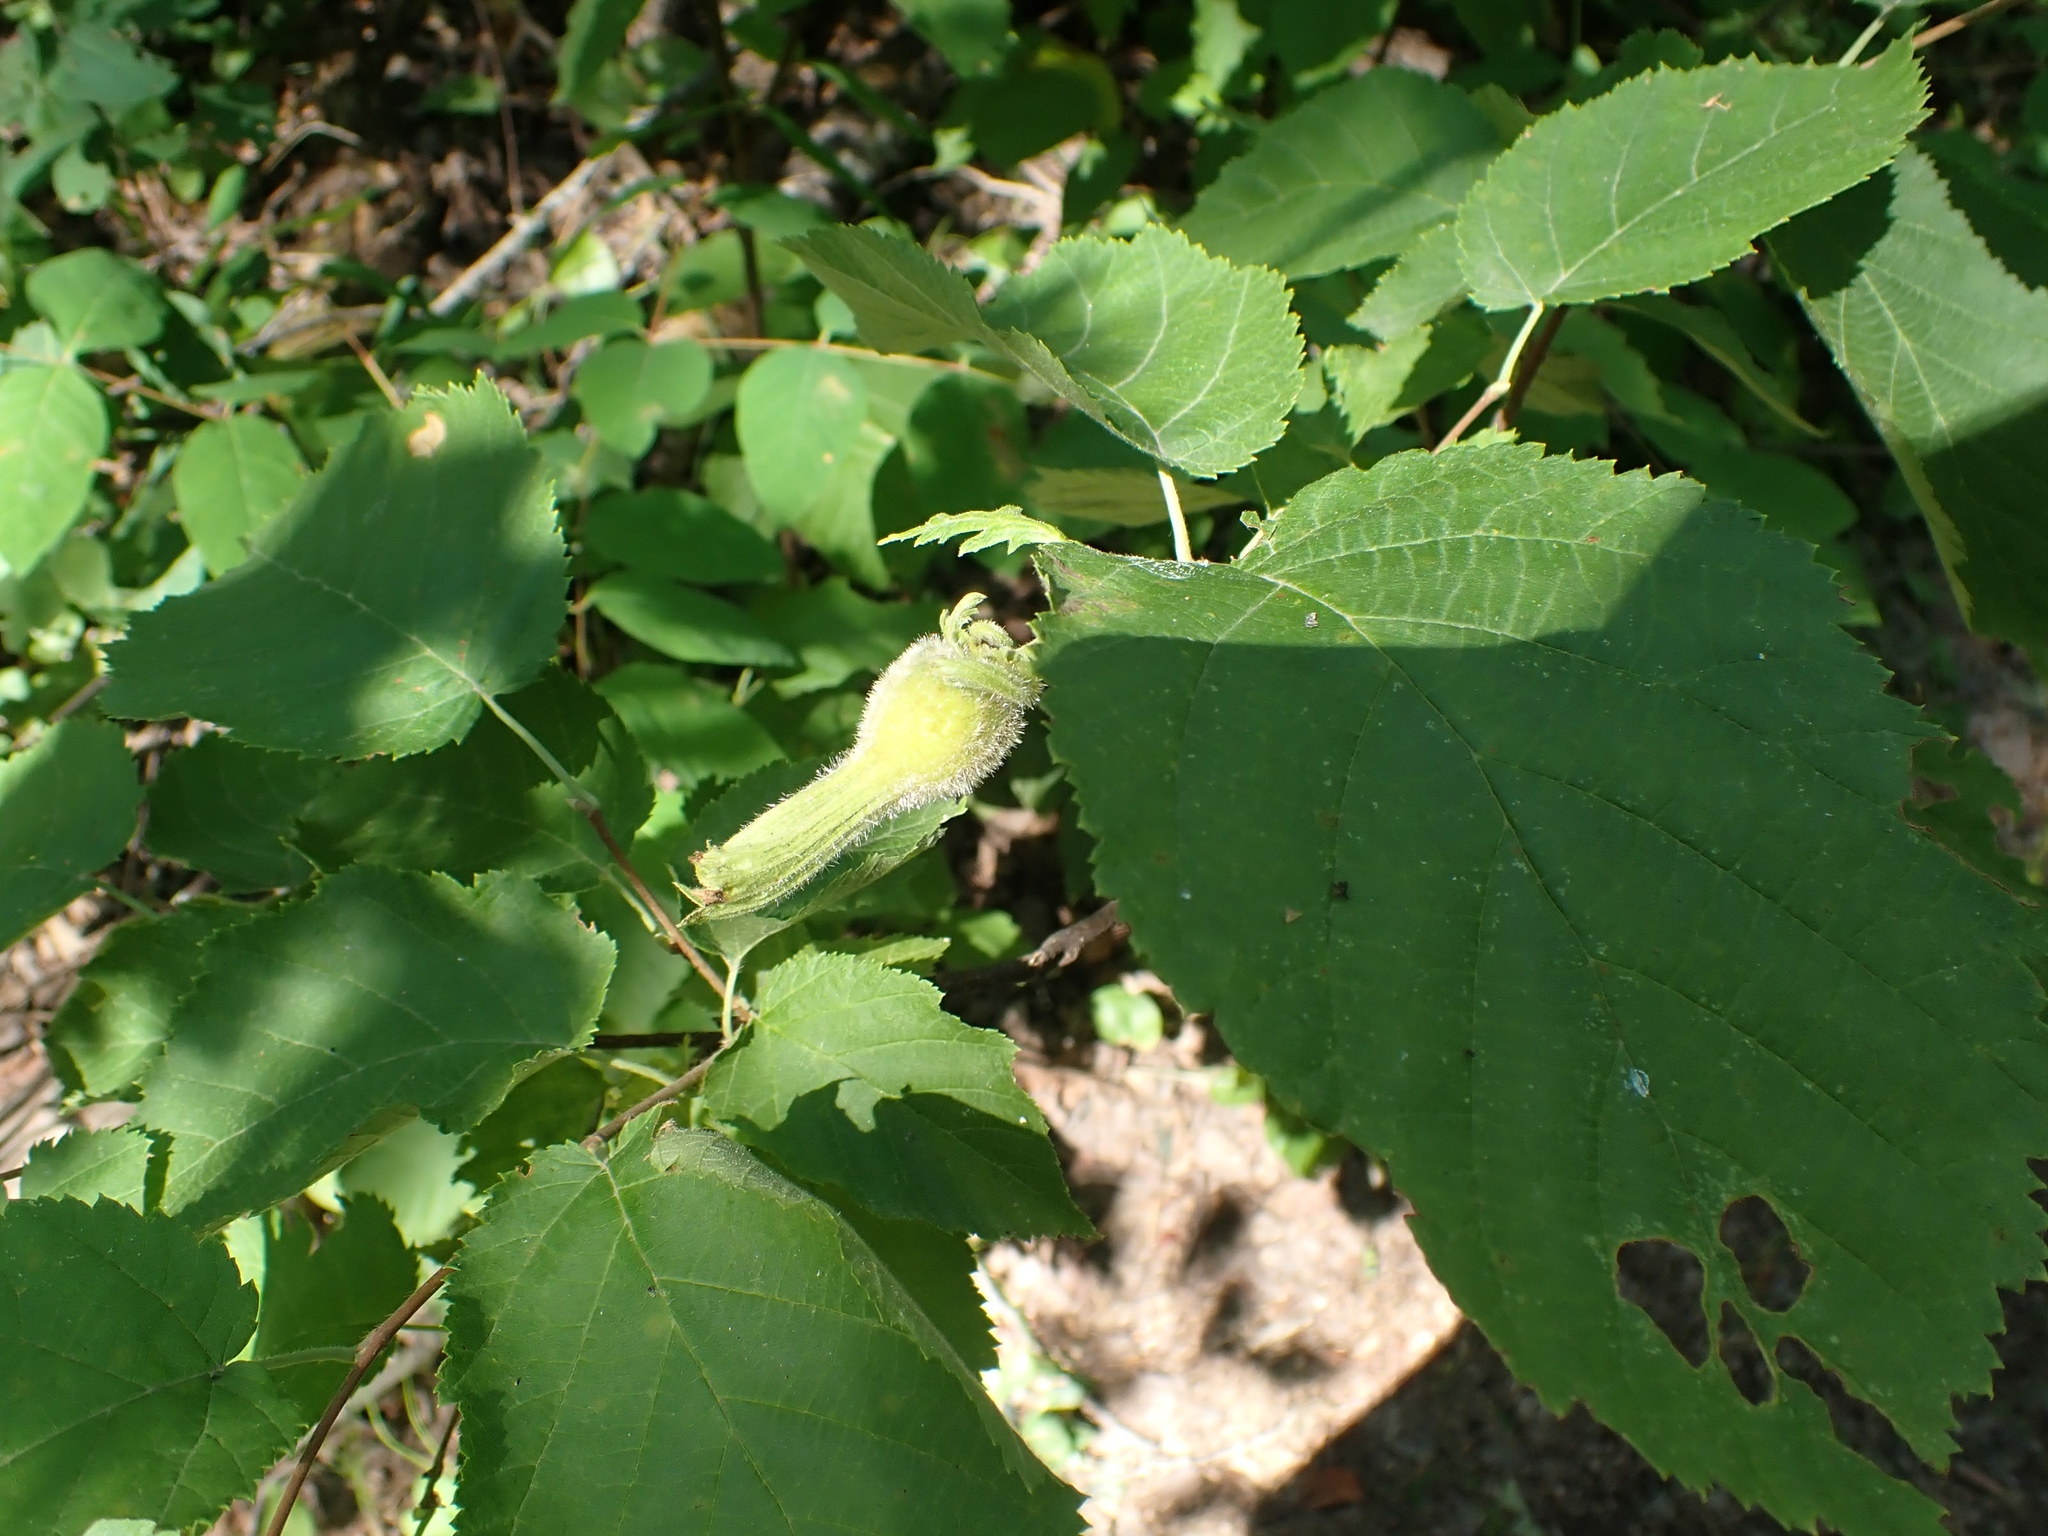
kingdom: Plantae
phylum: Tracheophyta
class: Magnoliopsida
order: Fagales
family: Betulaceae
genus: Corylus
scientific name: Corylus cornuta
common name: Beaked hazel
